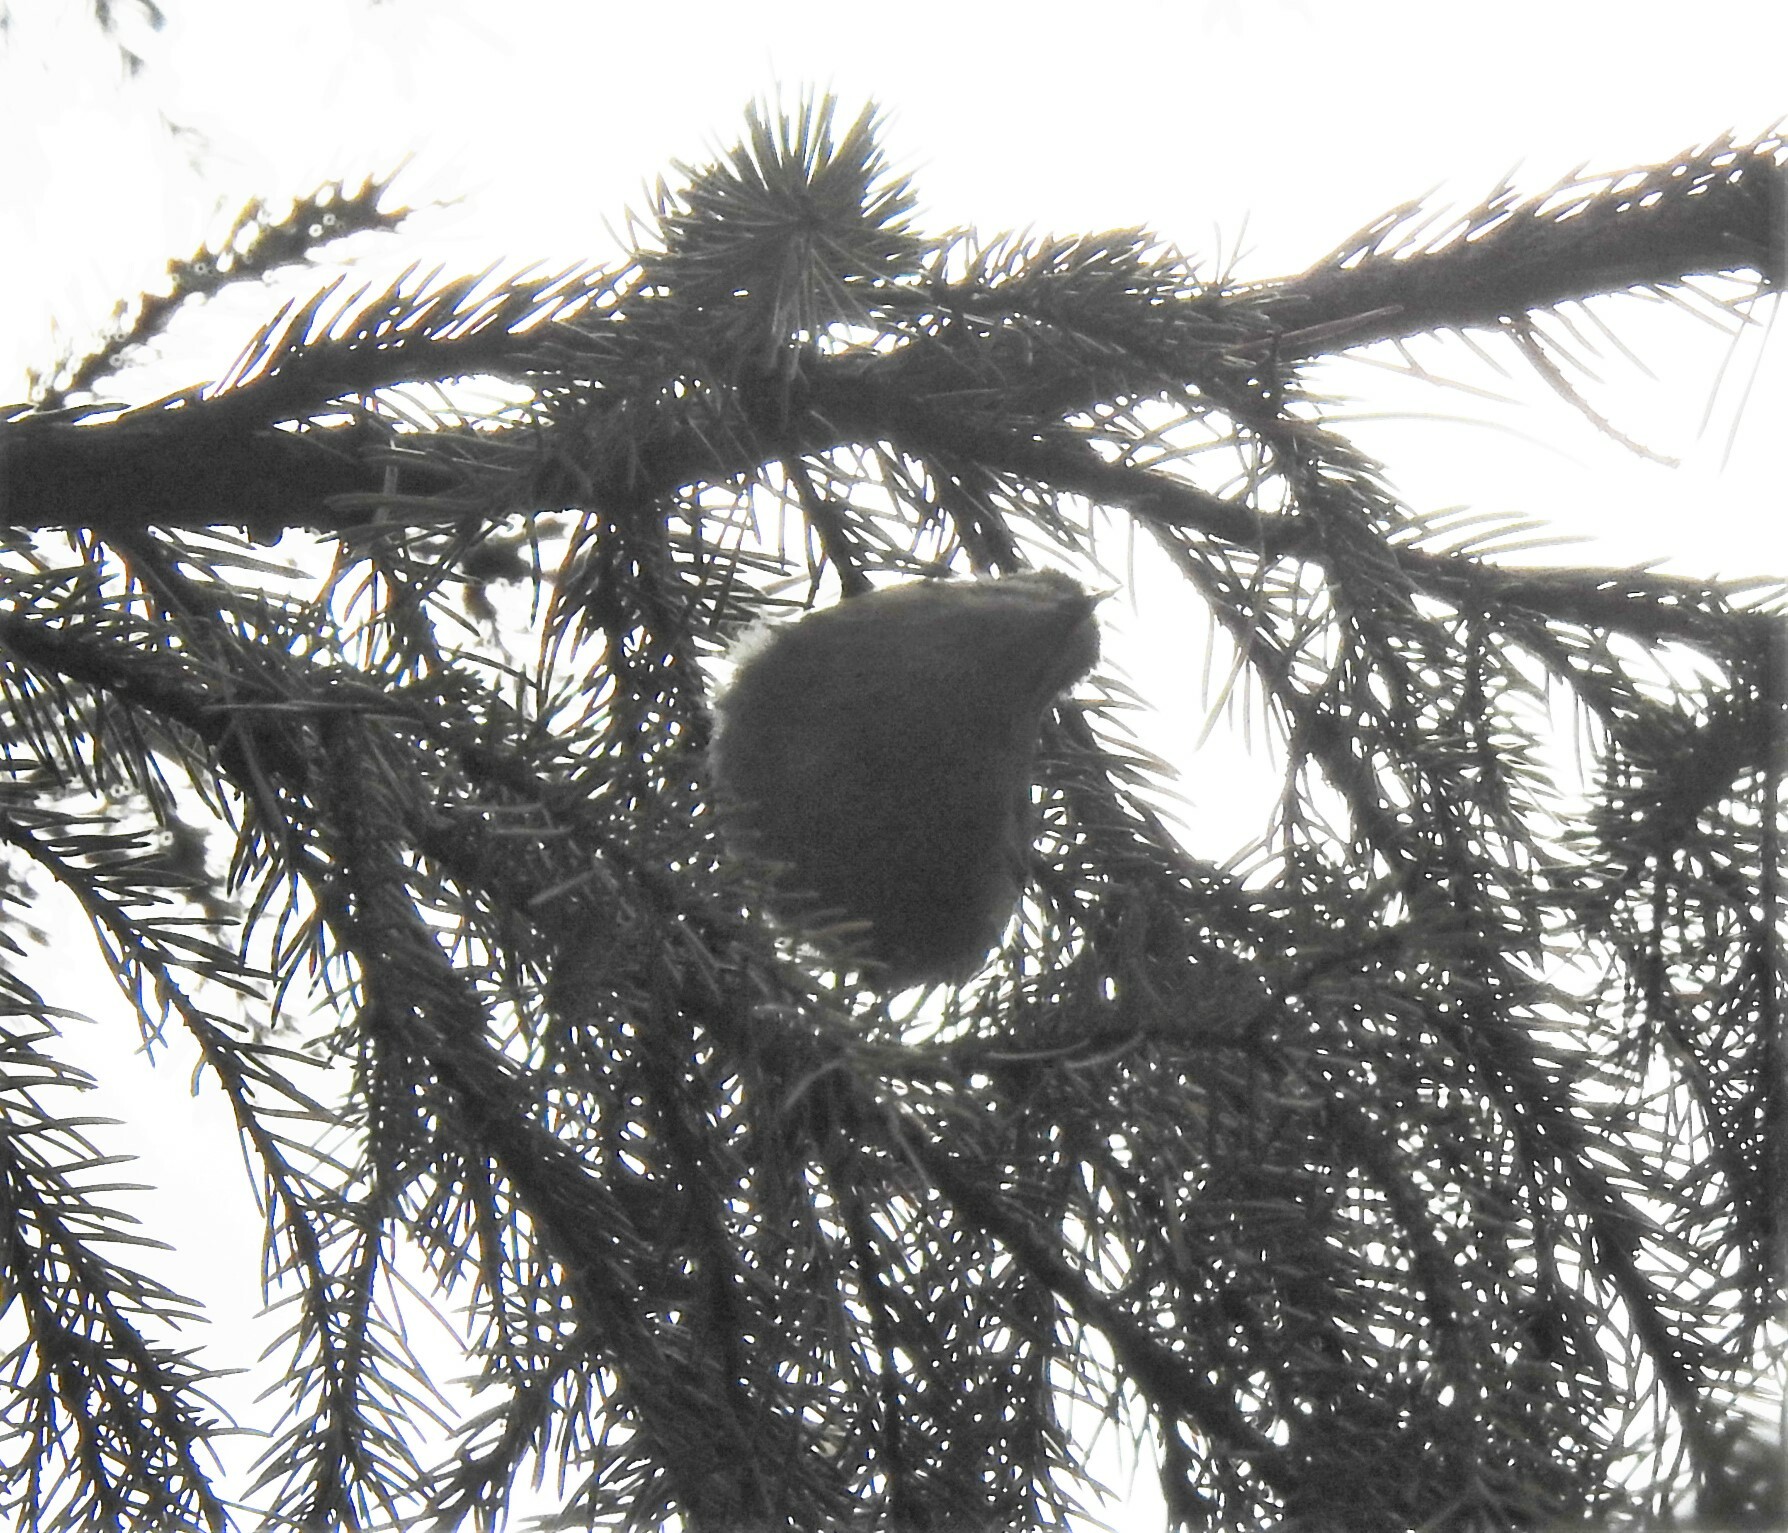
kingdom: Animalia
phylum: Chordata
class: Aves
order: Passeriformes
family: Regulidae
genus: Regulus
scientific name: Regulus regulus
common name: Goldcrest
